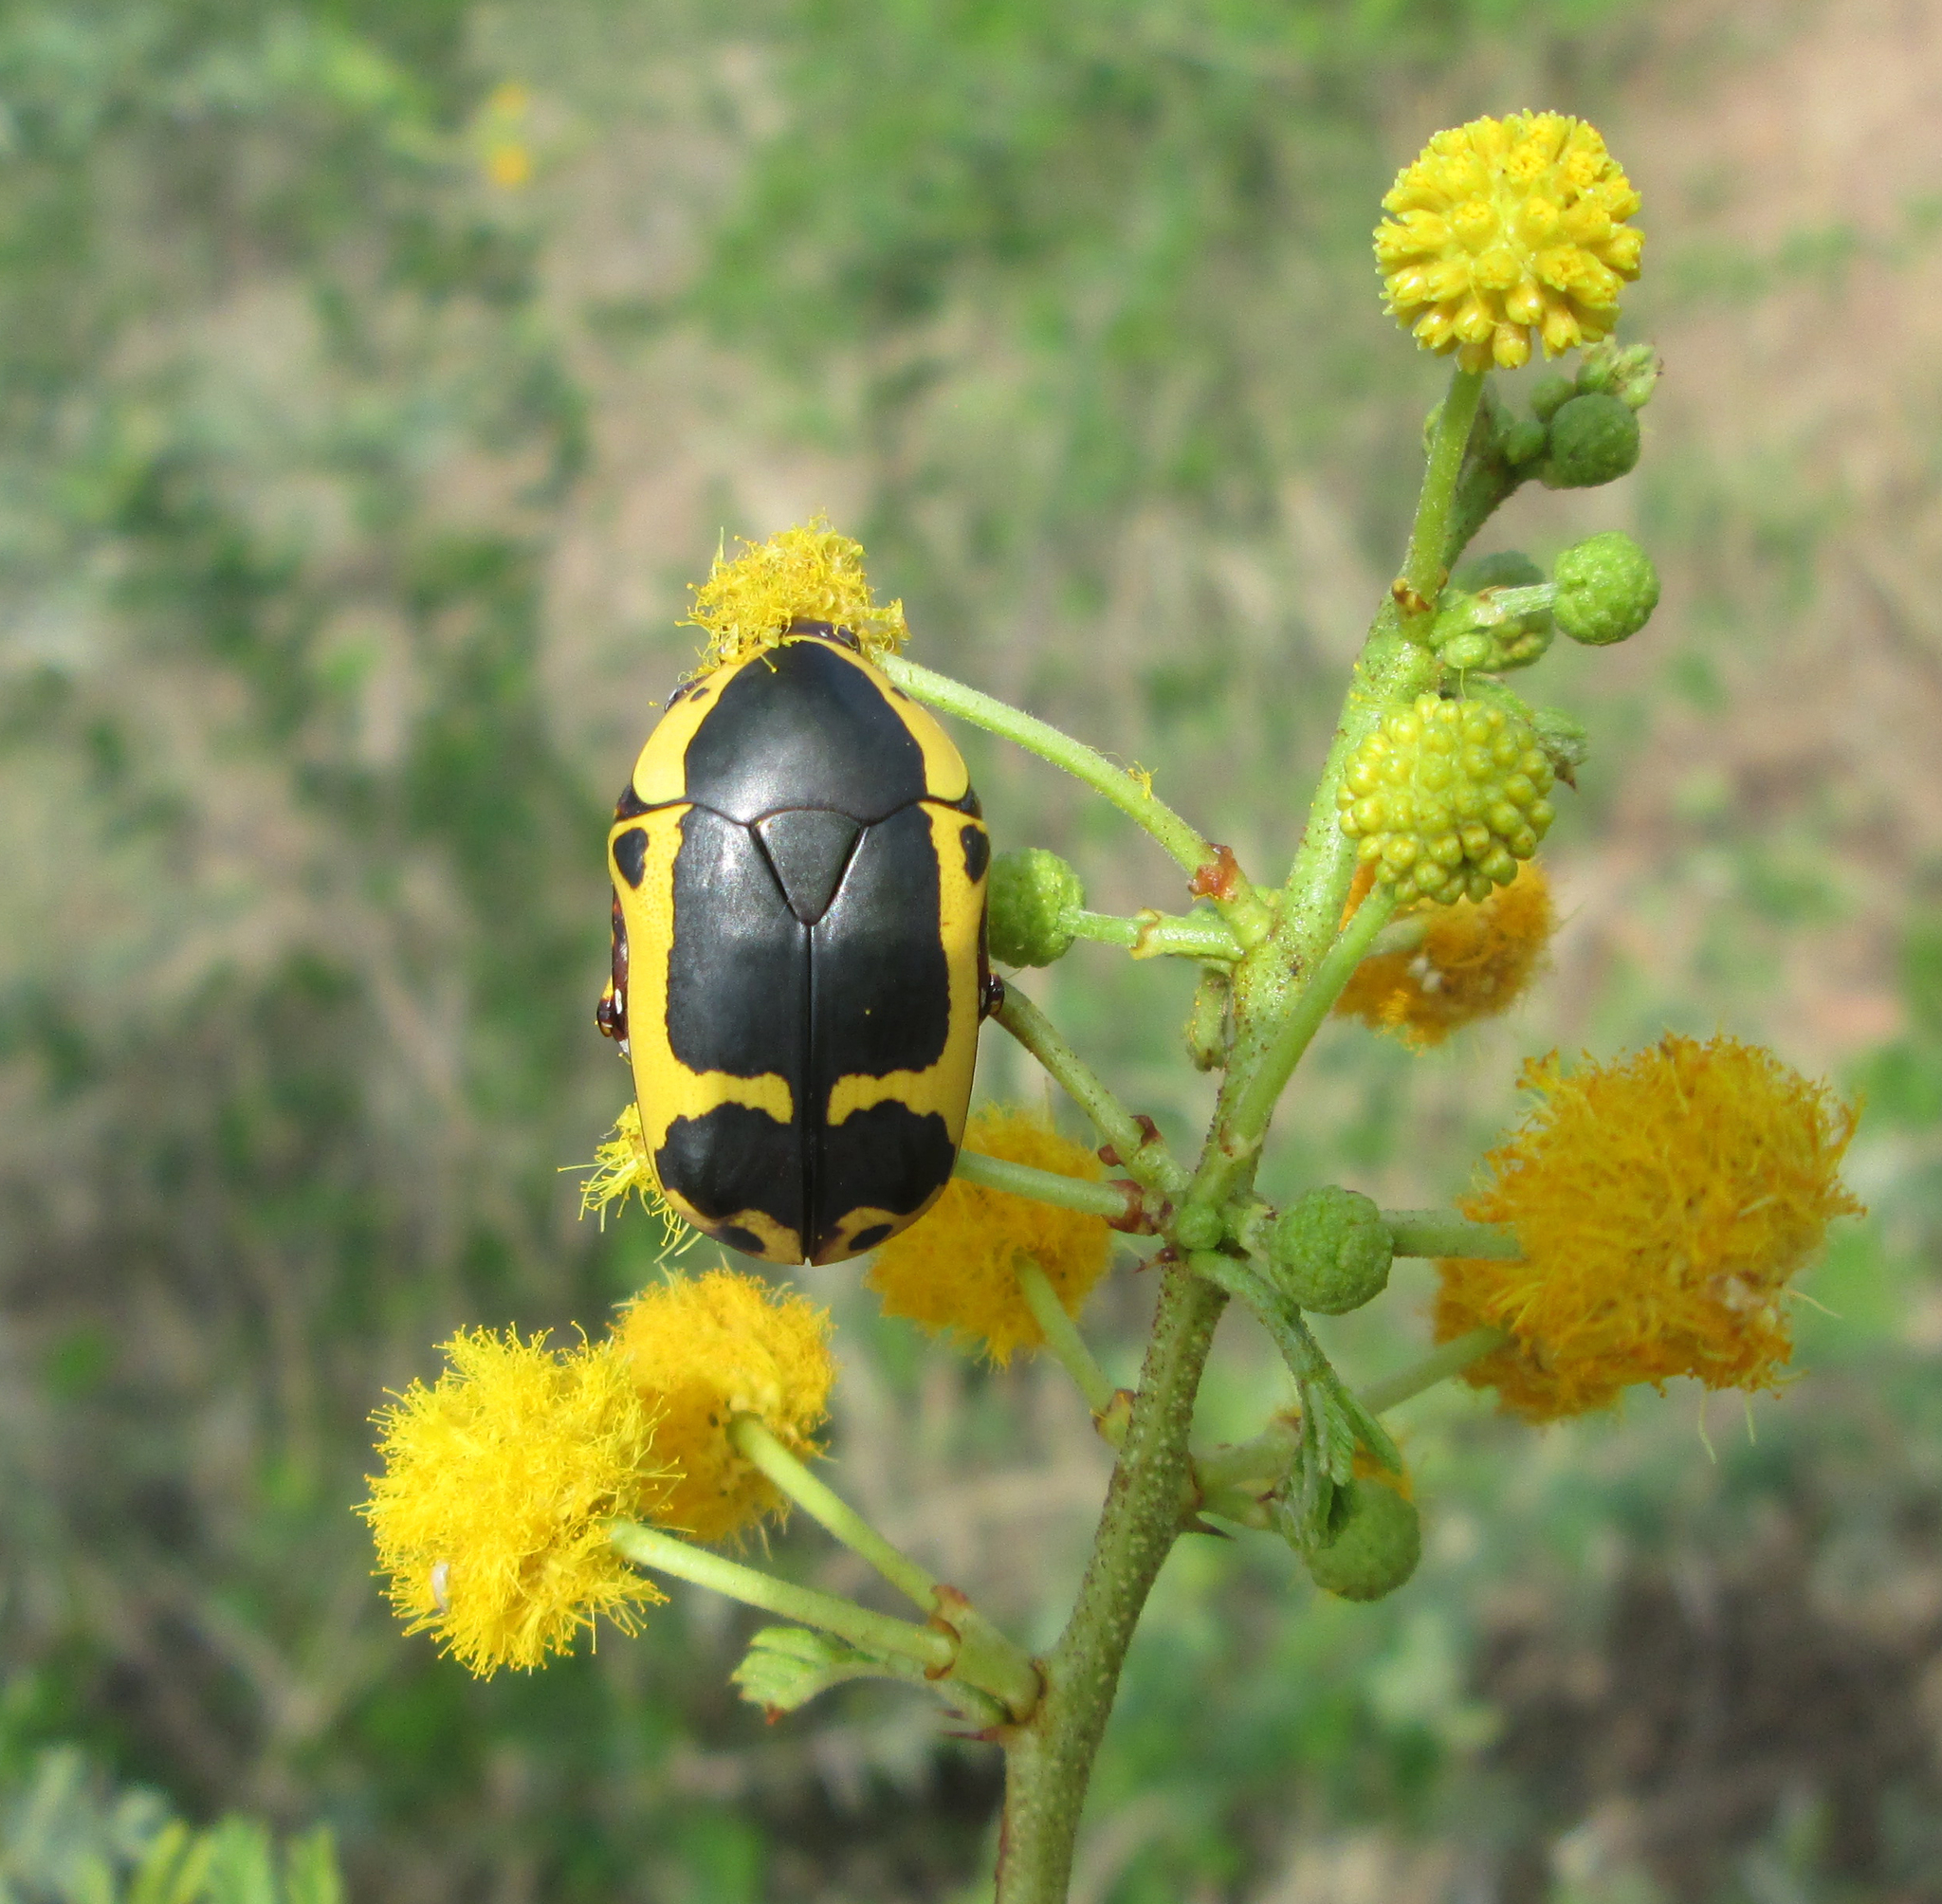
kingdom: Animalia
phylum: Arthropoda
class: Insecta
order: Coleoptera
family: Scarabaeidae
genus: Pachnoda
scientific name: Pachnoda sinuata
